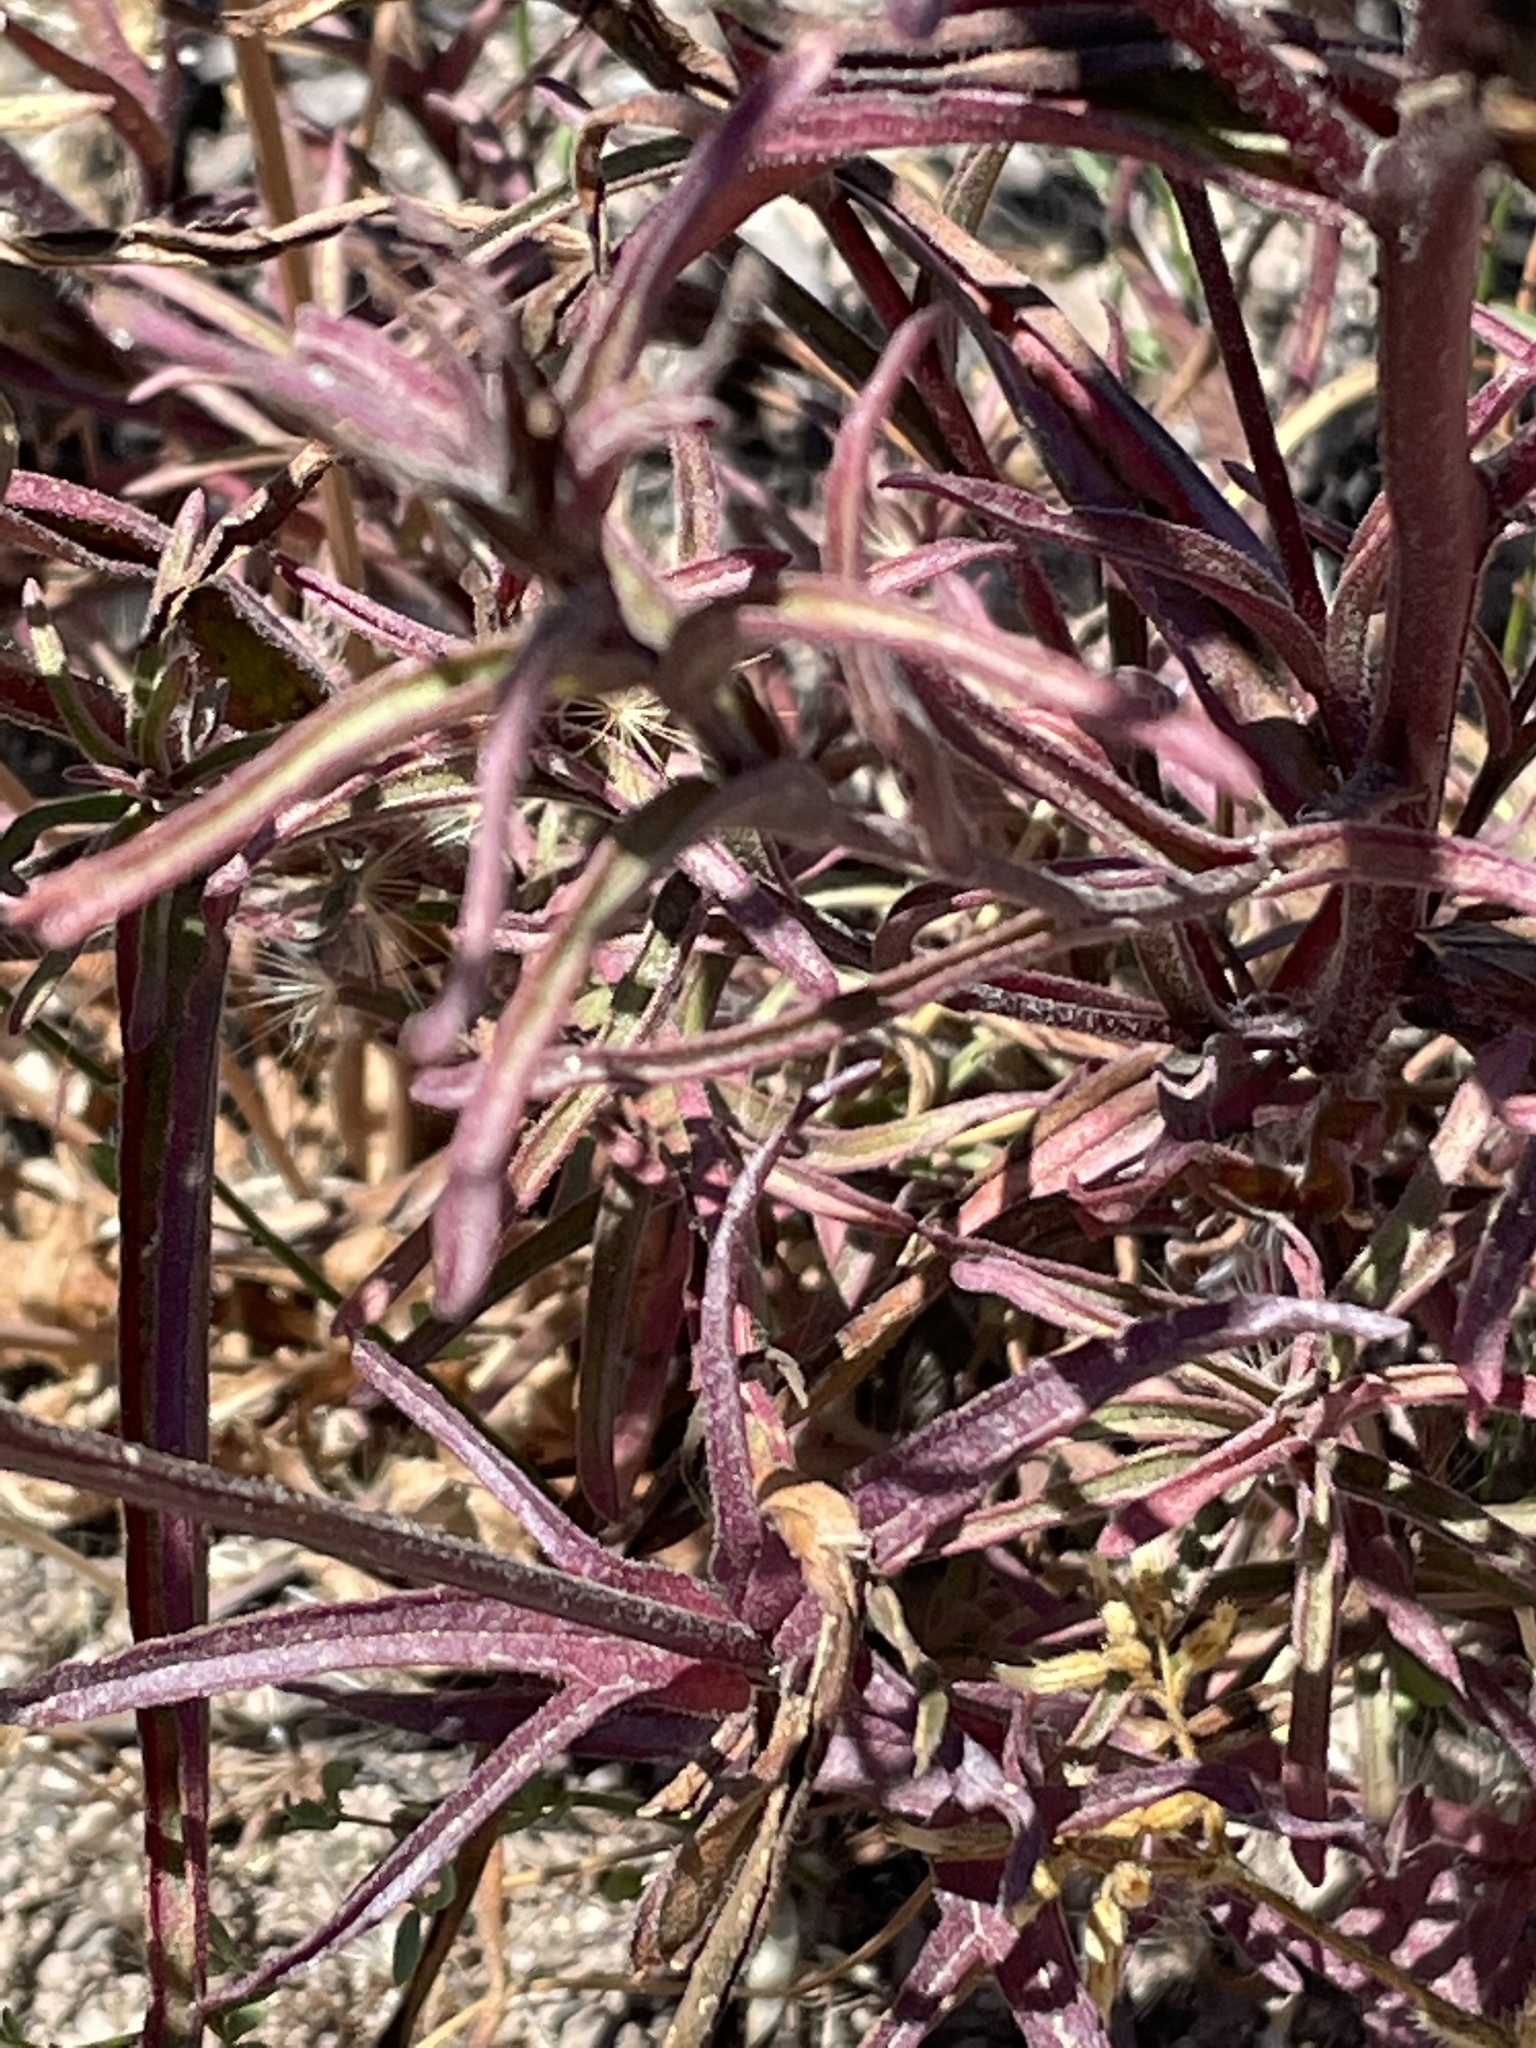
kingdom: Plantae
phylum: Tracheophyta
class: Magnoliopsida
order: Lamiales
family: Orobanchaceae
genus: Castilleja
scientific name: Castilleja affinis
